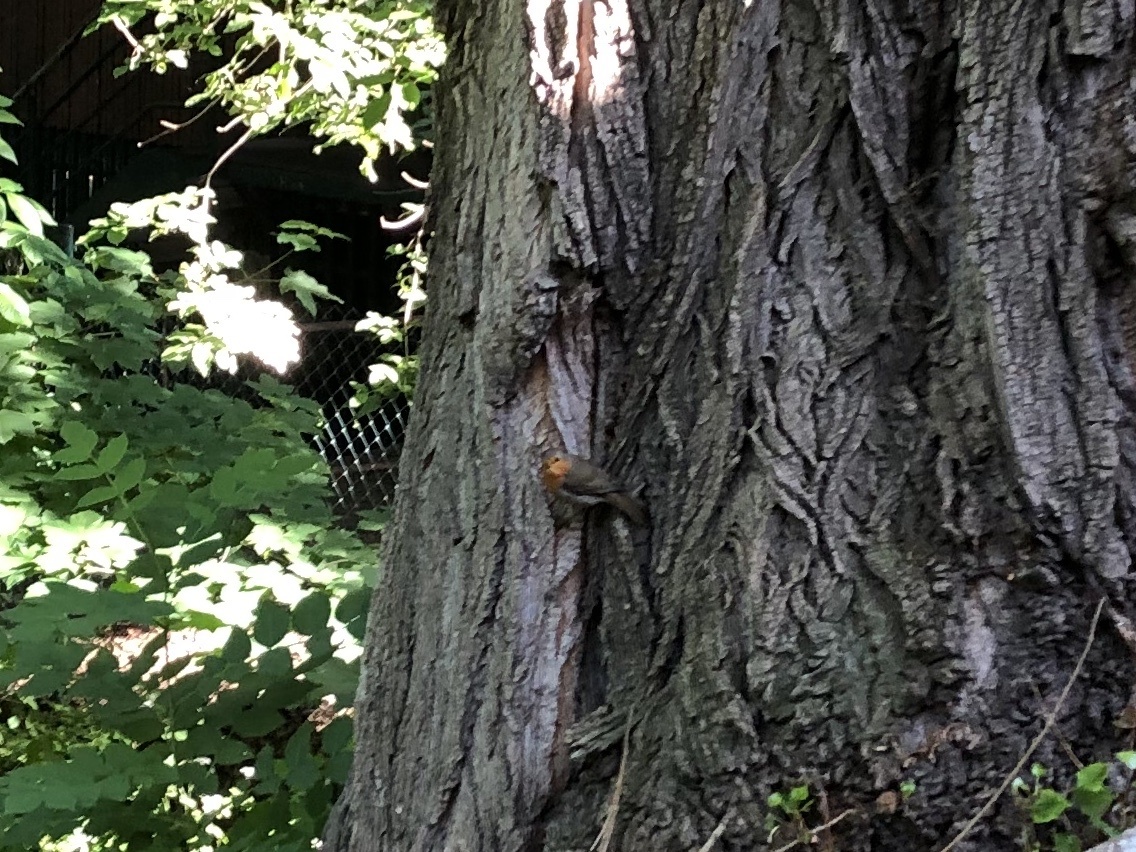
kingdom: Animalia
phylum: Chordata
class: Aves
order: Passeriformes
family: Muscicapidae
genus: Erithacus
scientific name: Erithacus rubecula
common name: European robin
